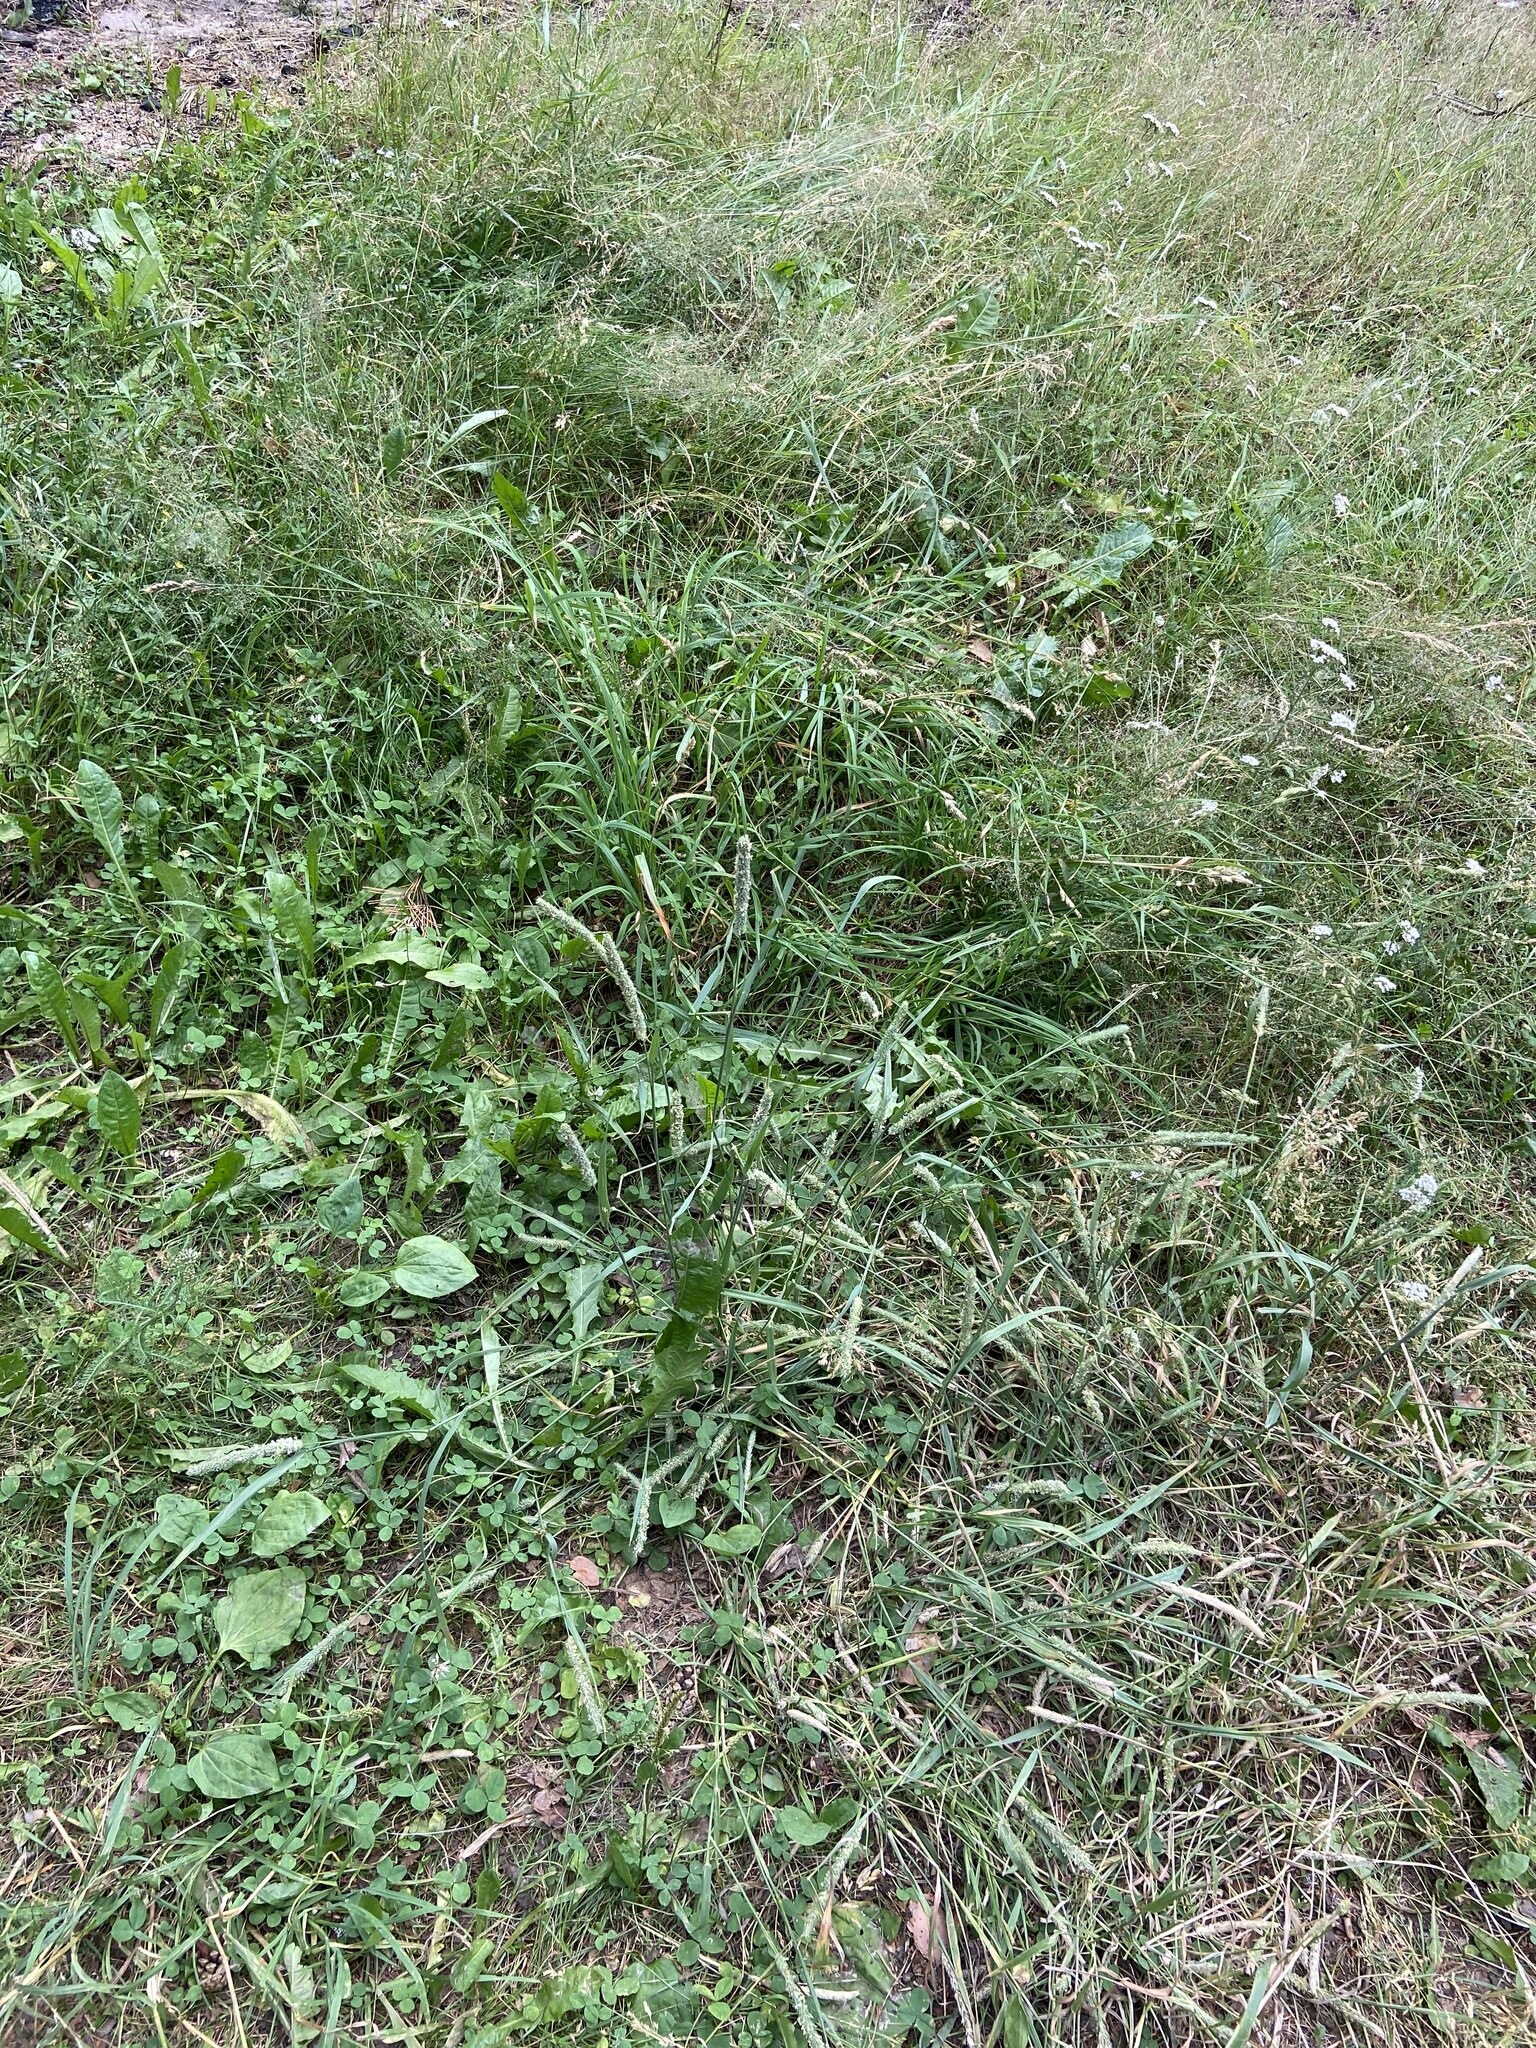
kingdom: Plantae
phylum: Tracheophyta
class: Liliopsida
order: Poales
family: Poaceae
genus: Phleum
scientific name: Phleum pratense
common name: Timothy grass
